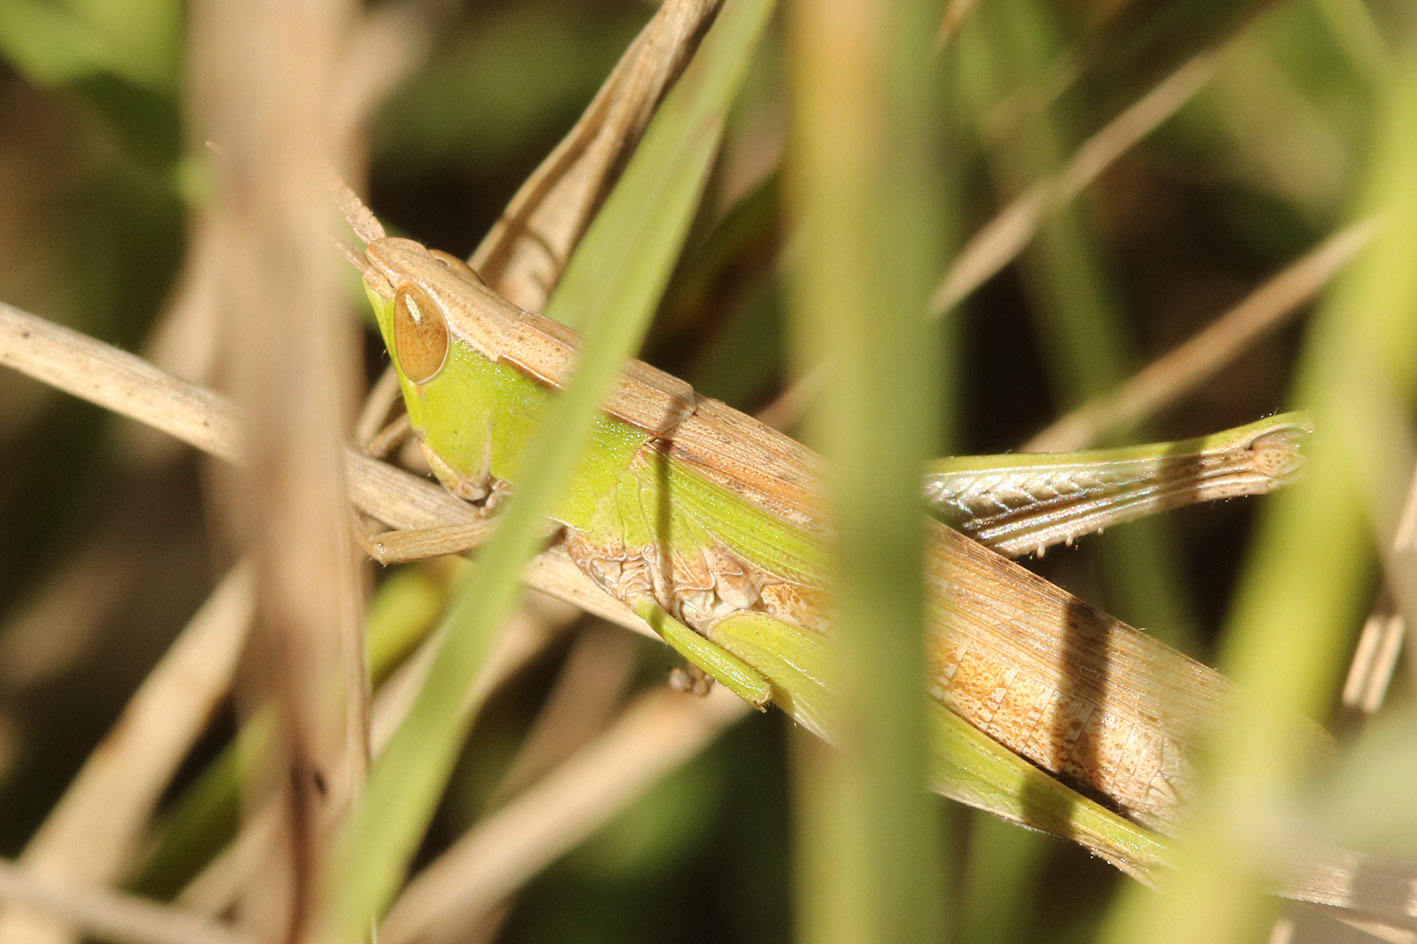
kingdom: Animalia
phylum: Arthropoda
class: Insecta
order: Orthoptera
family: Acrididae
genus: Laplatacris
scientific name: Laplatacris dispar
